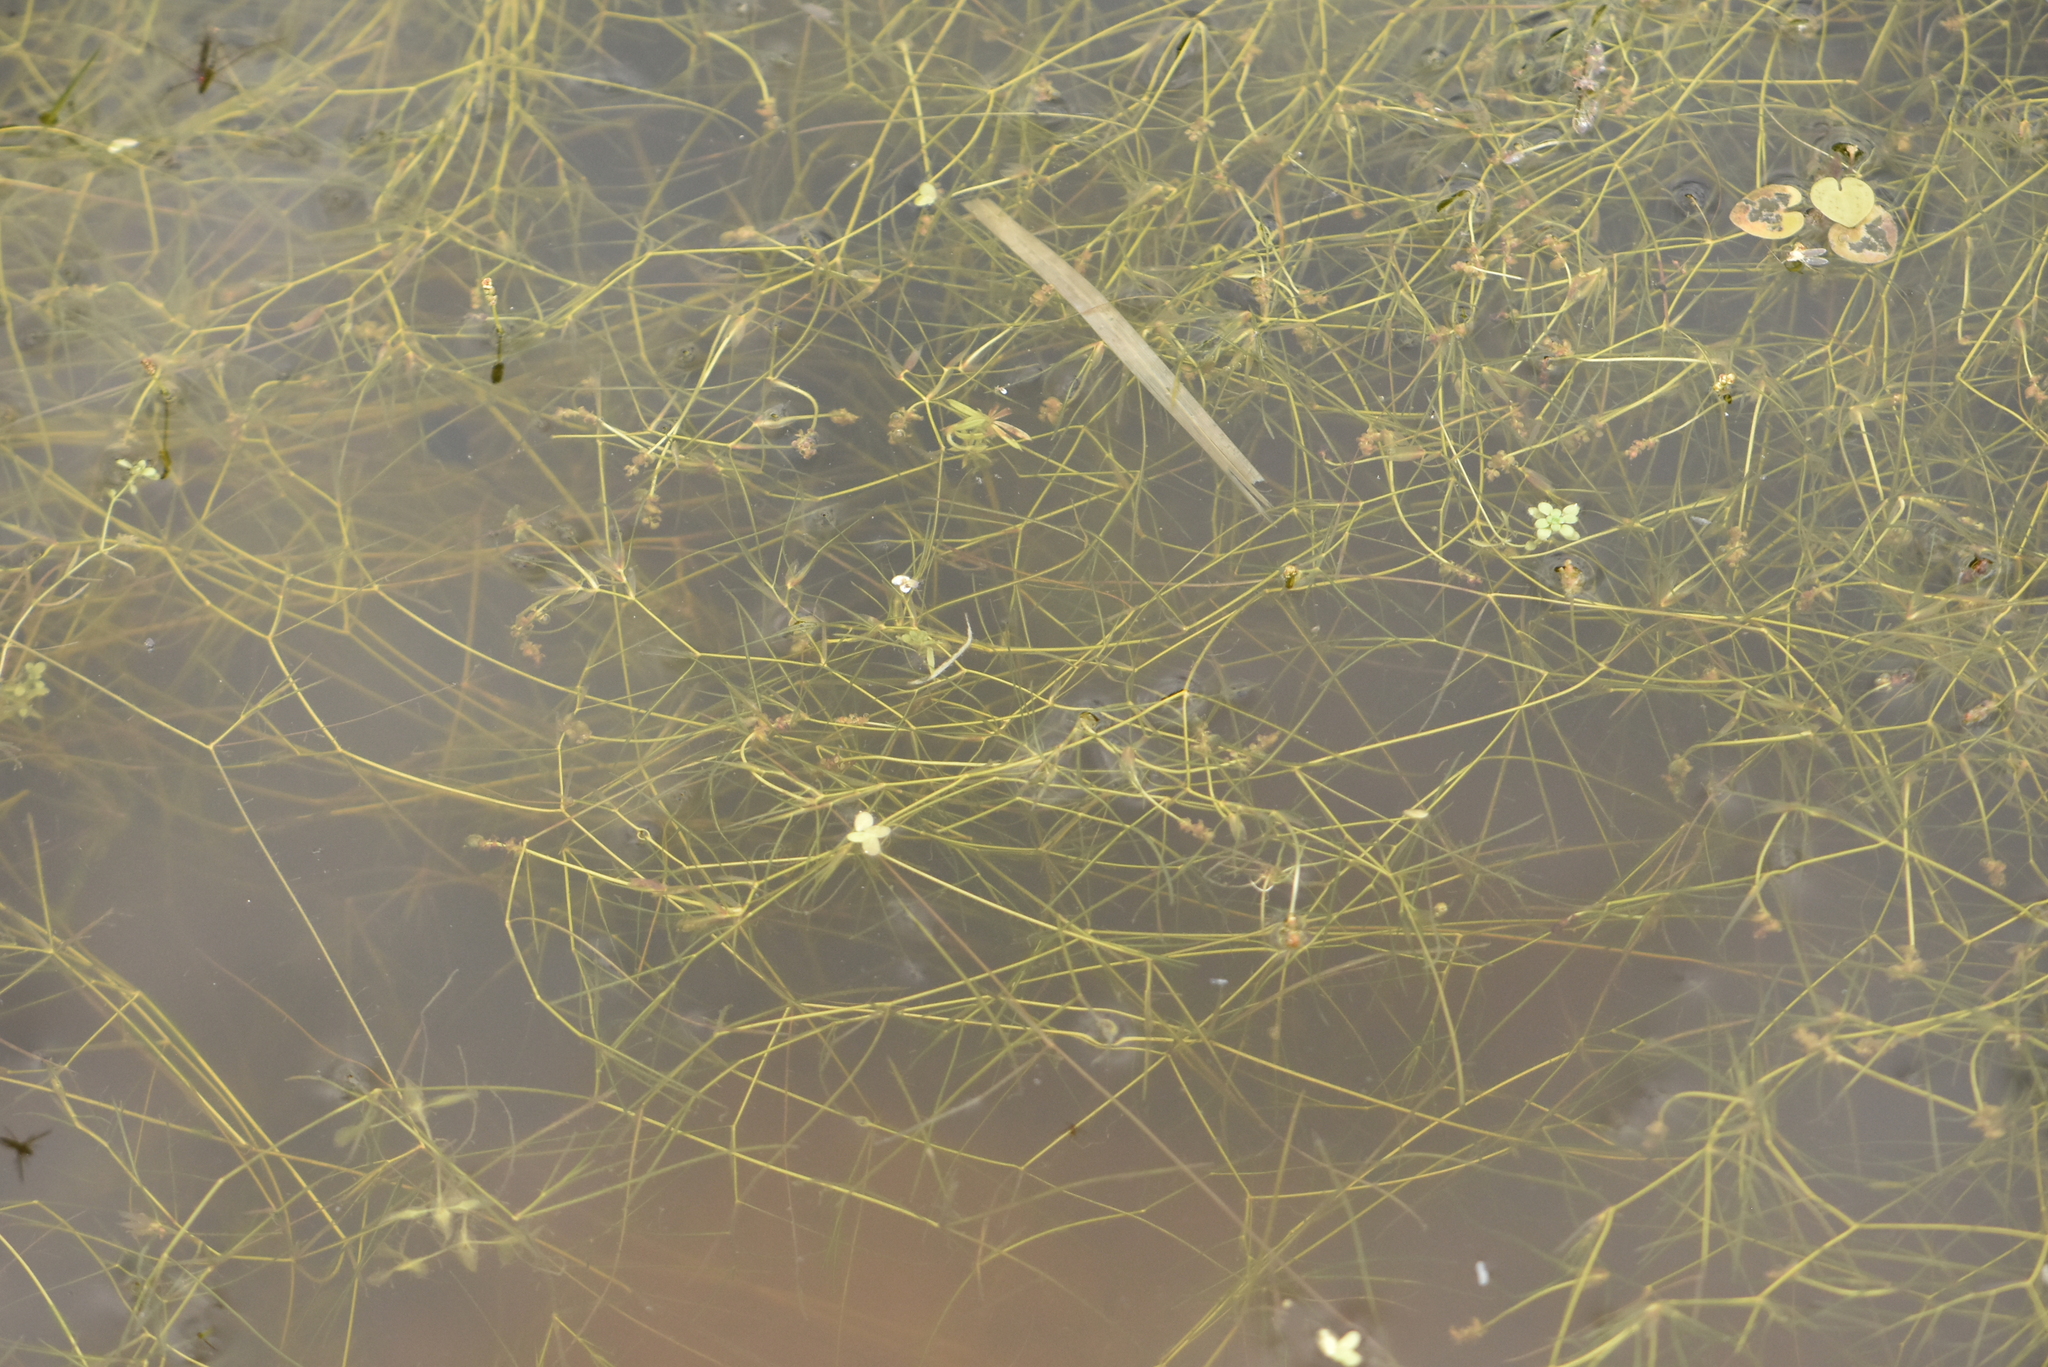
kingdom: Plantae
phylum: Tracheophyta
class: Liliopsida
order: Alismatales
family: Potamogetonaceae
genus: Stuckenia
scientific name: Stuckenia pectinata
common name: Sago pondweed
